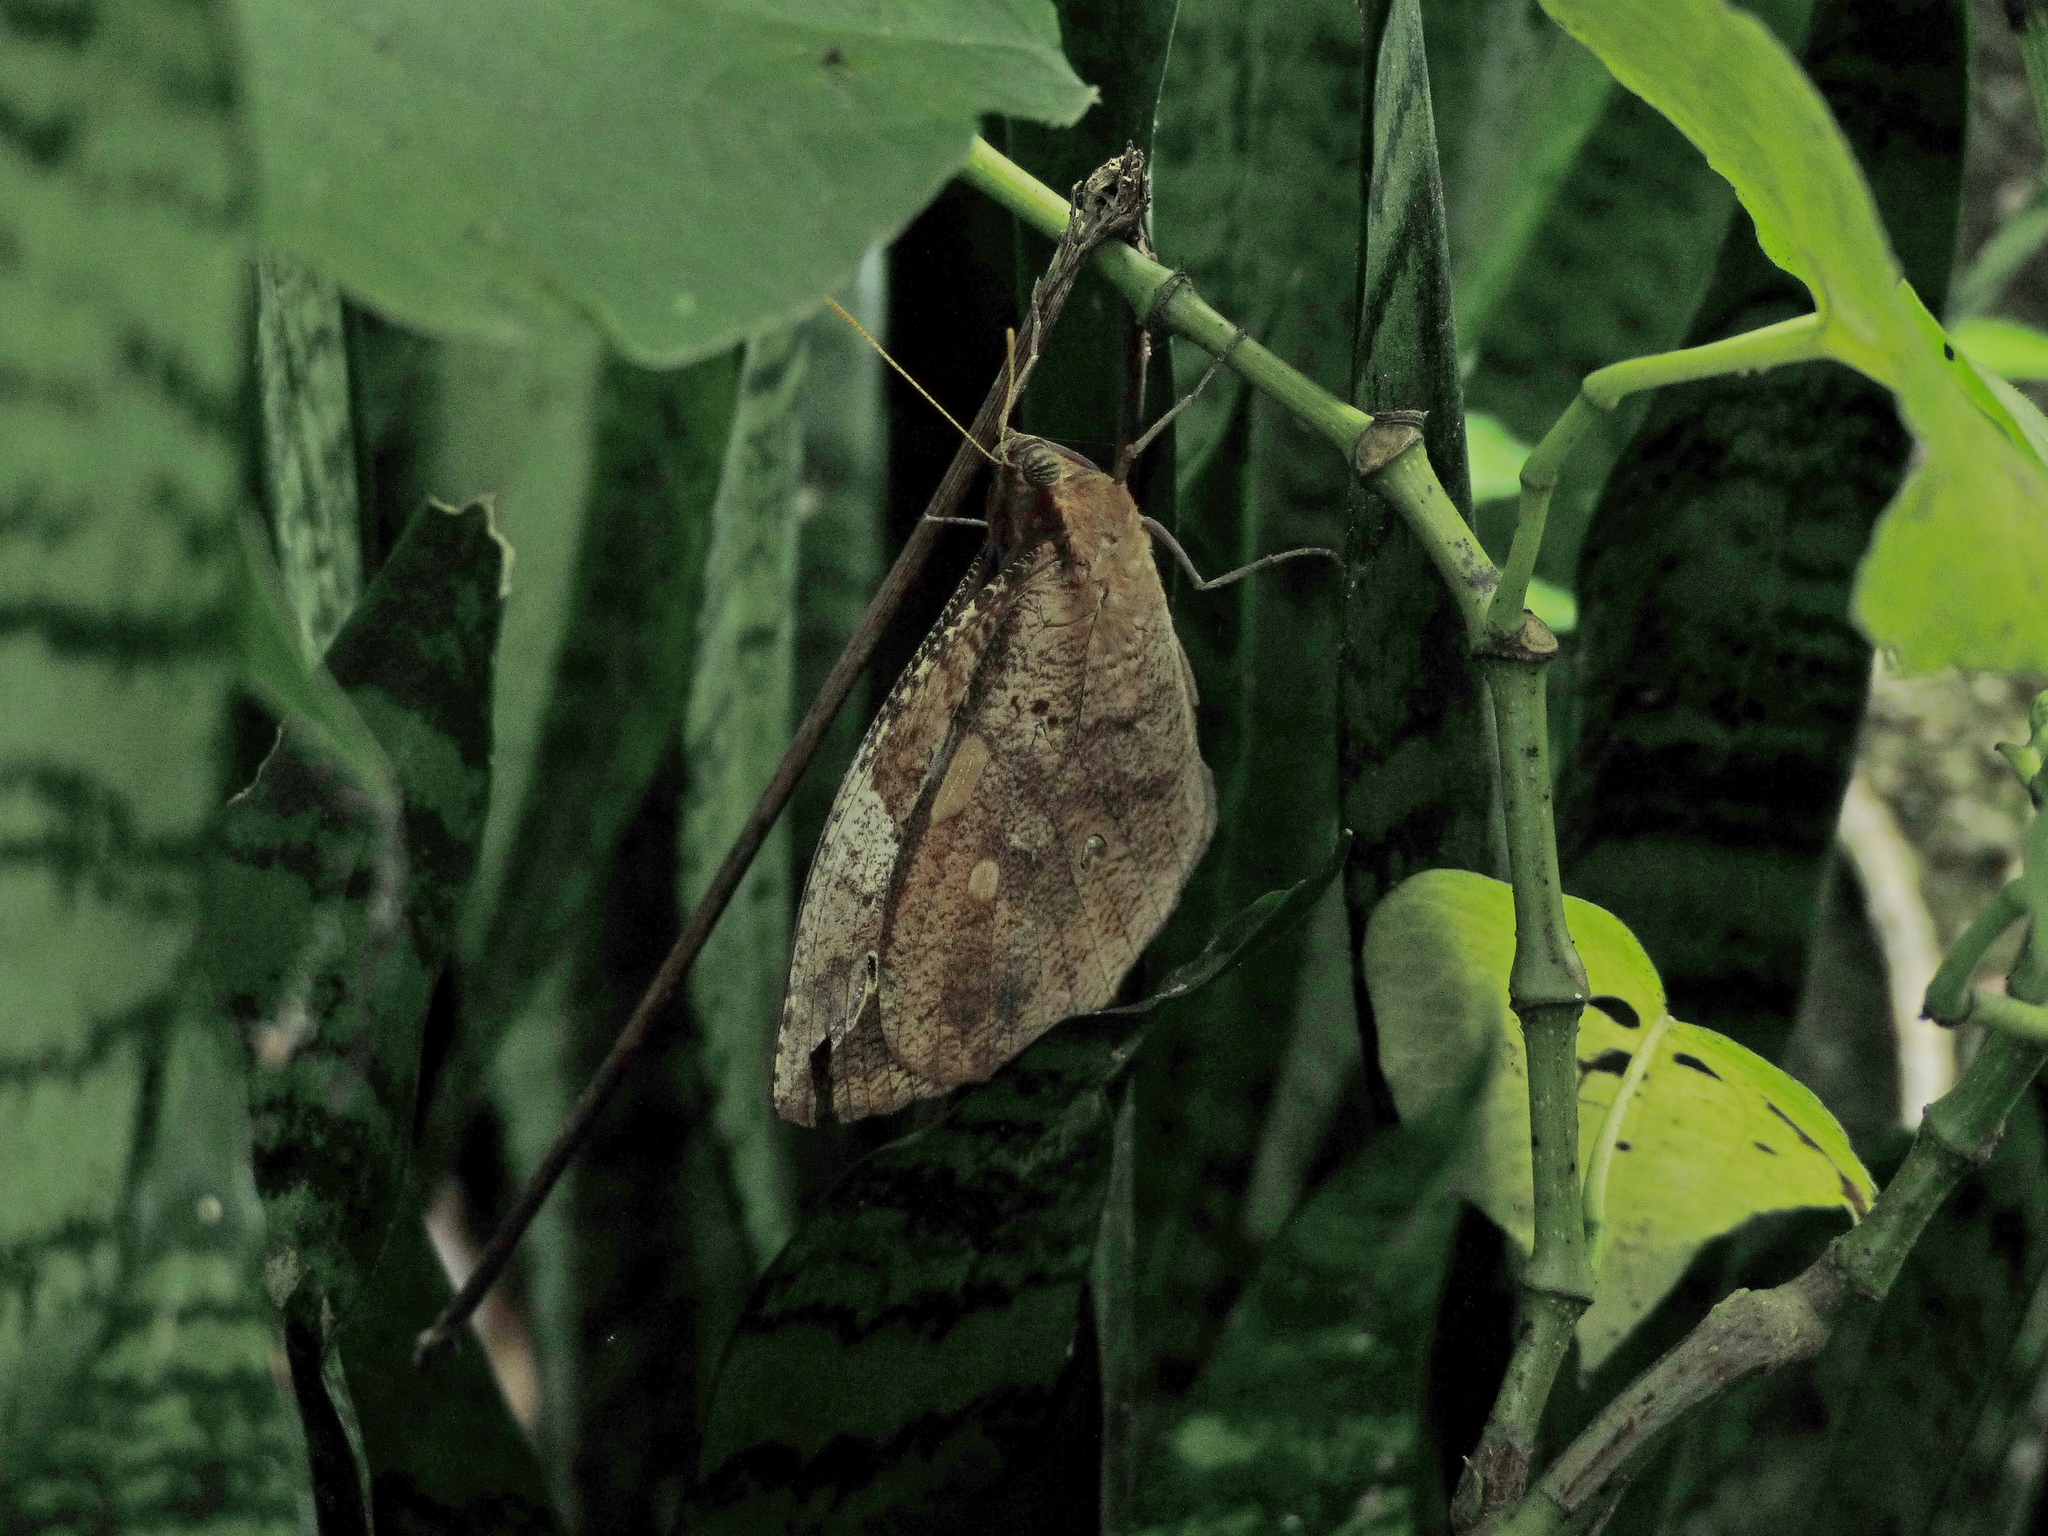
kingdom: Animalia
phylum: Arthropoda
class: Insecta
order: Lepidoptera
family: Nymphalidae
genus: Dynastor
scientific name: Dynastor darius
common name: Daring owl-butterfly
